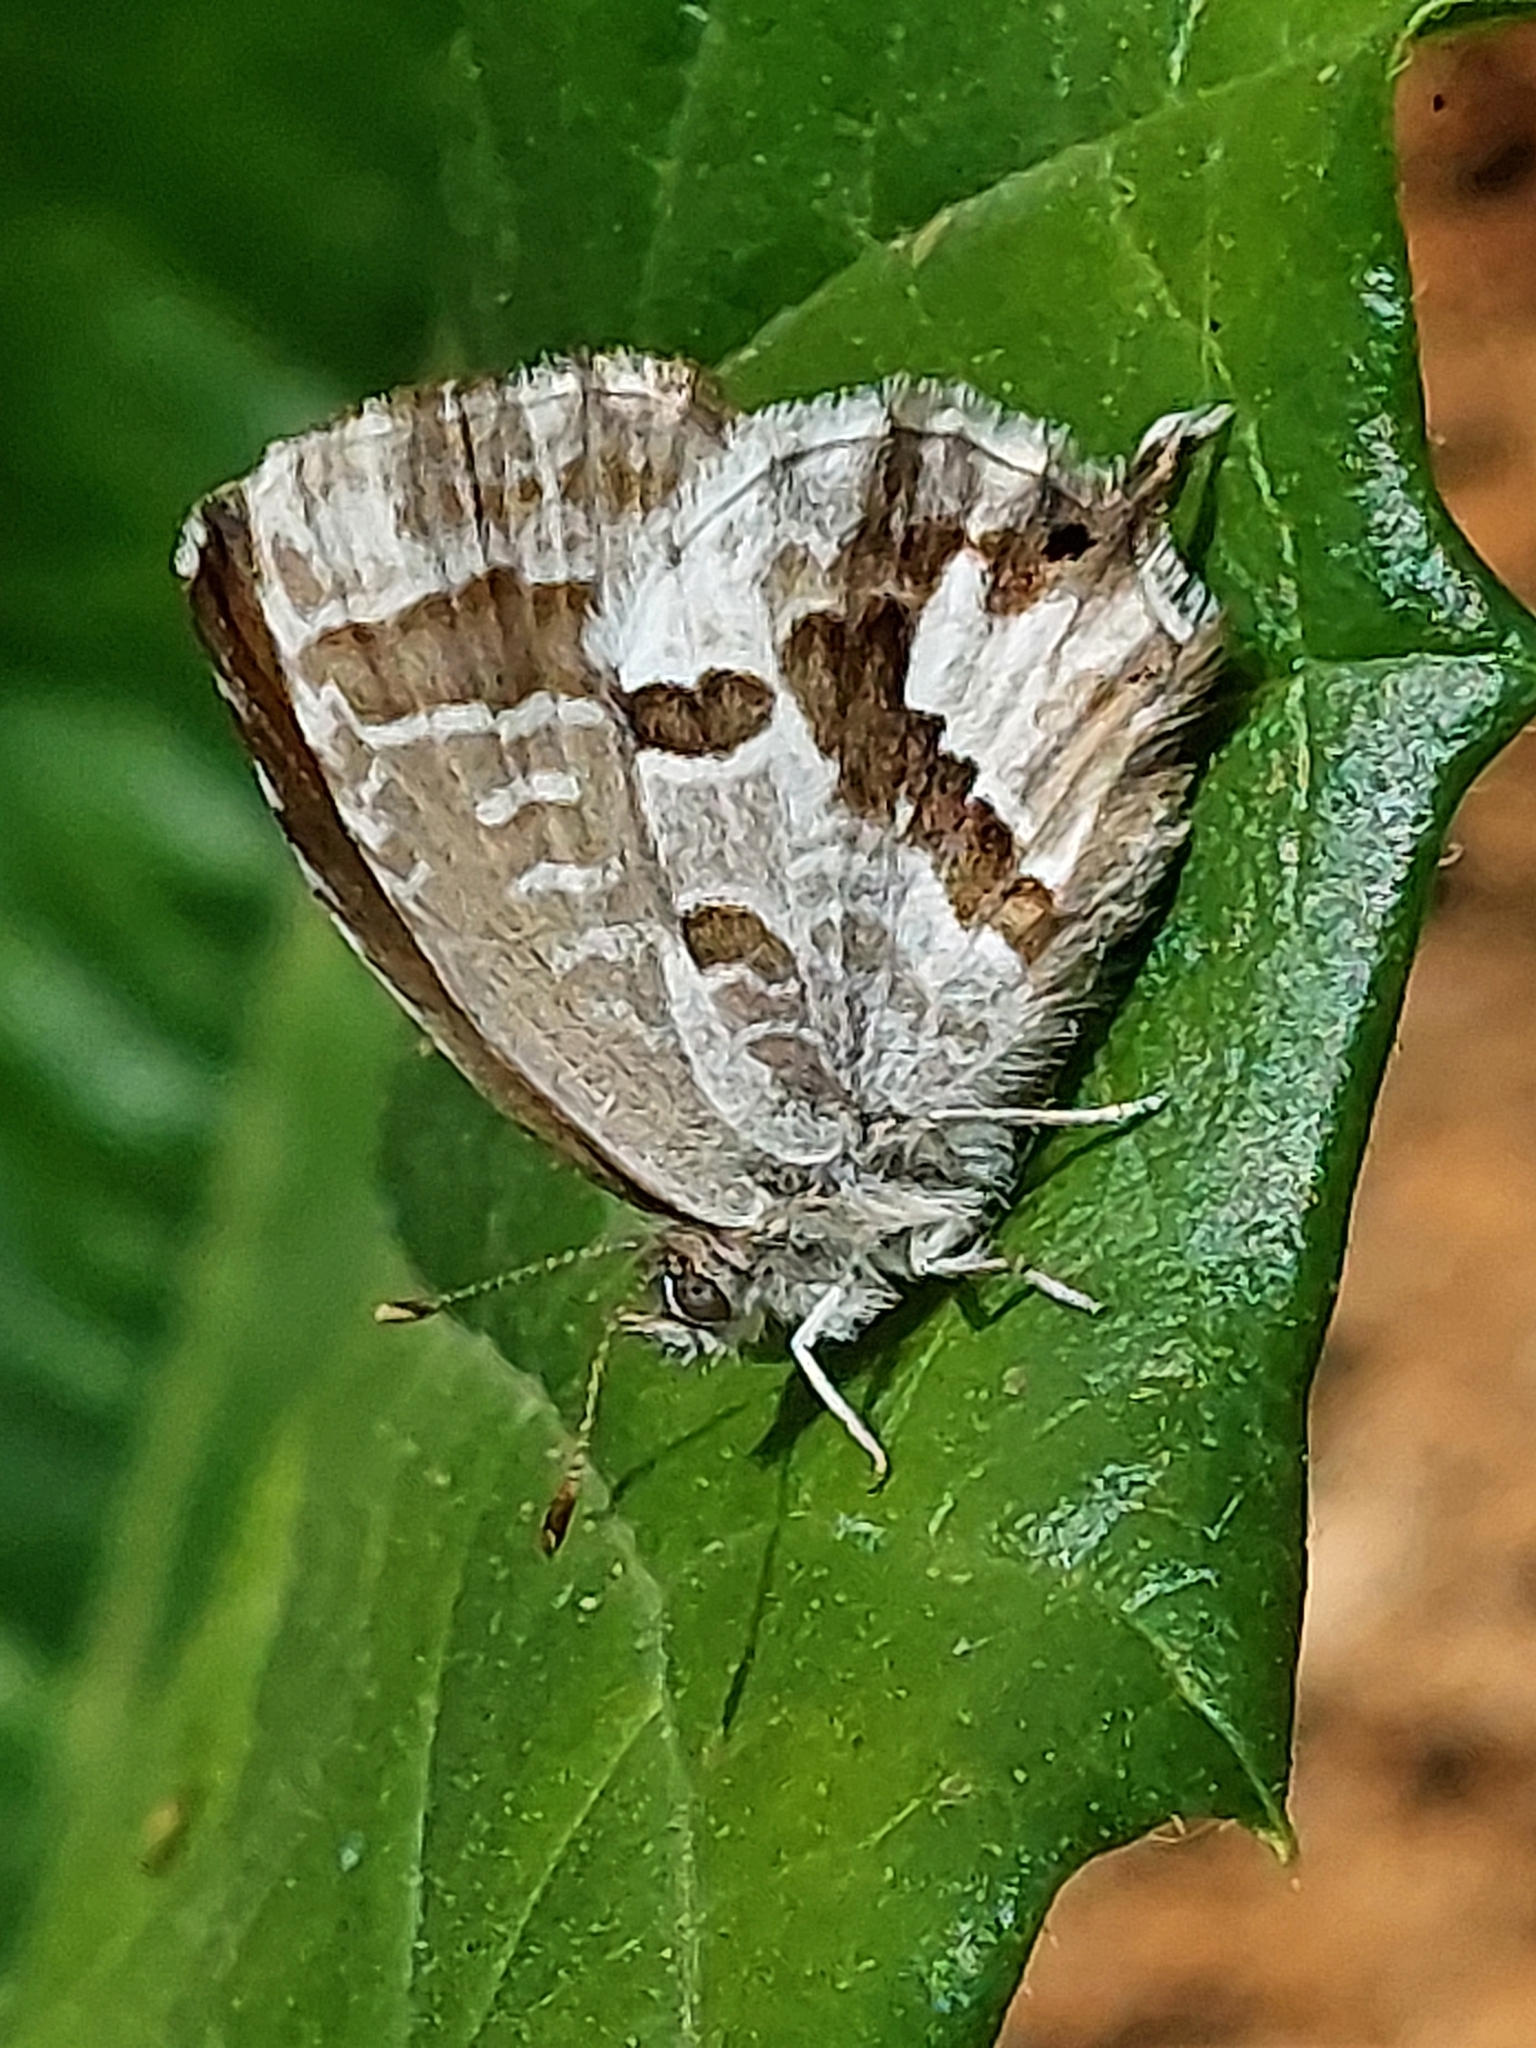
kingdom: Animalia
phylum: Arthropoda
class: Insecta
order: Lepidoptera
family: Lycaenidae
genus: Cacyreus
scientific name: Cacyreus marshalli
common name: Geranium bronze
